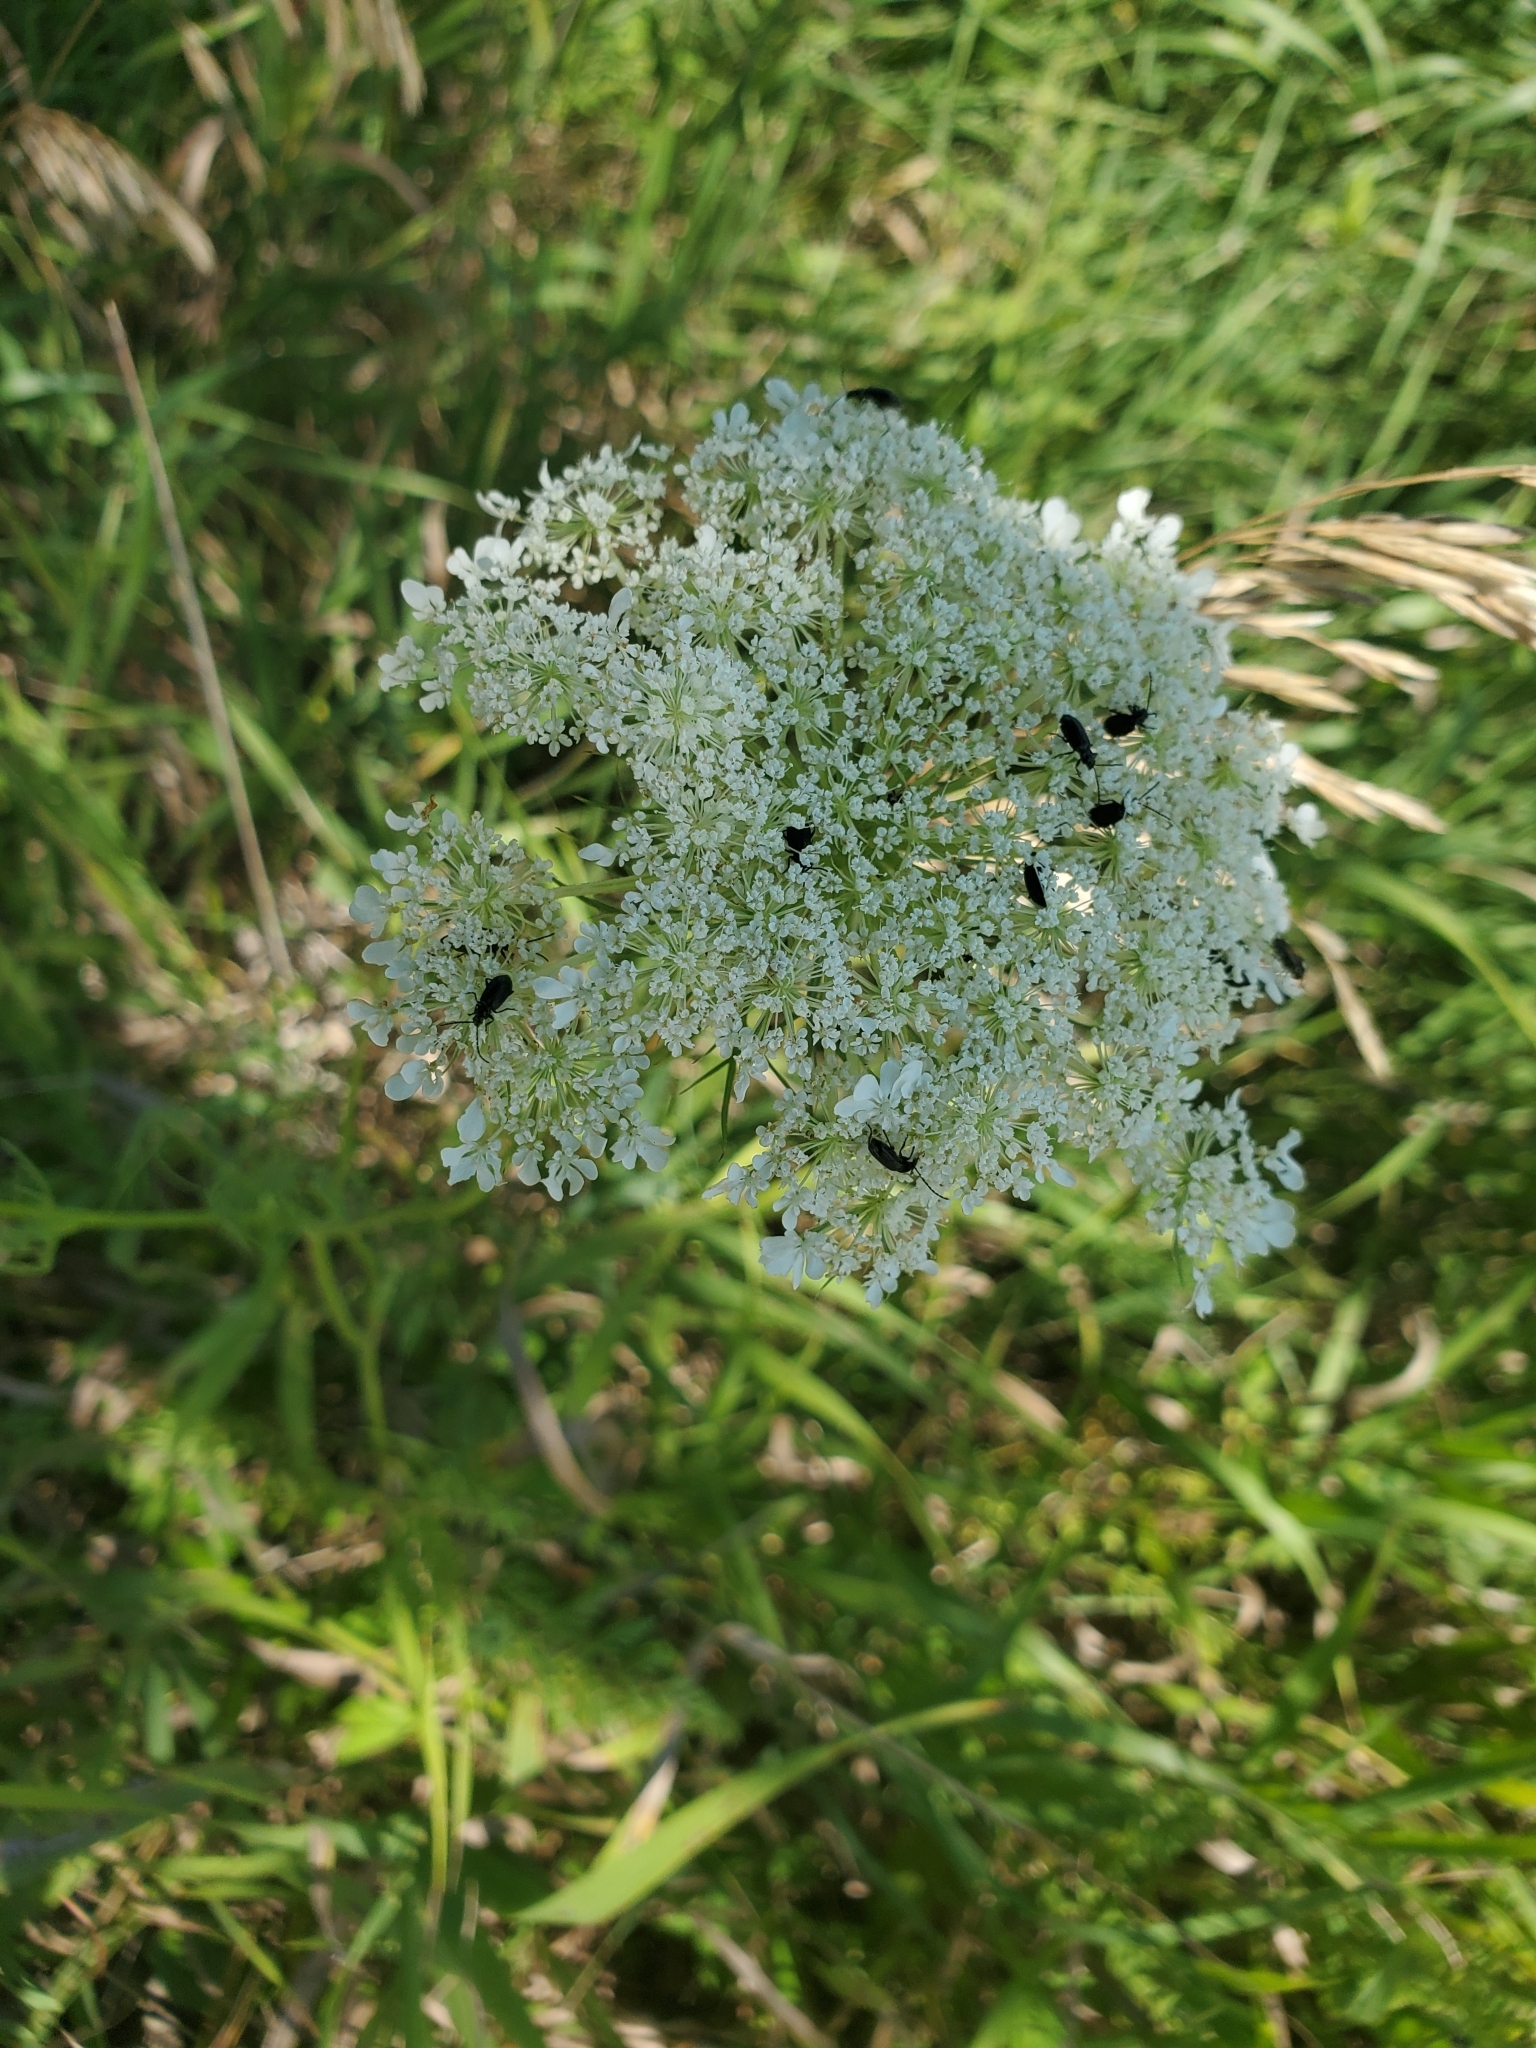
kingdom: Animalia
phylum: Arthropoda
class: Insecta
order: Coleoptera
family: Chrysomelidae
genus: Diabrotica
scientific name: Diabrotica cristata
